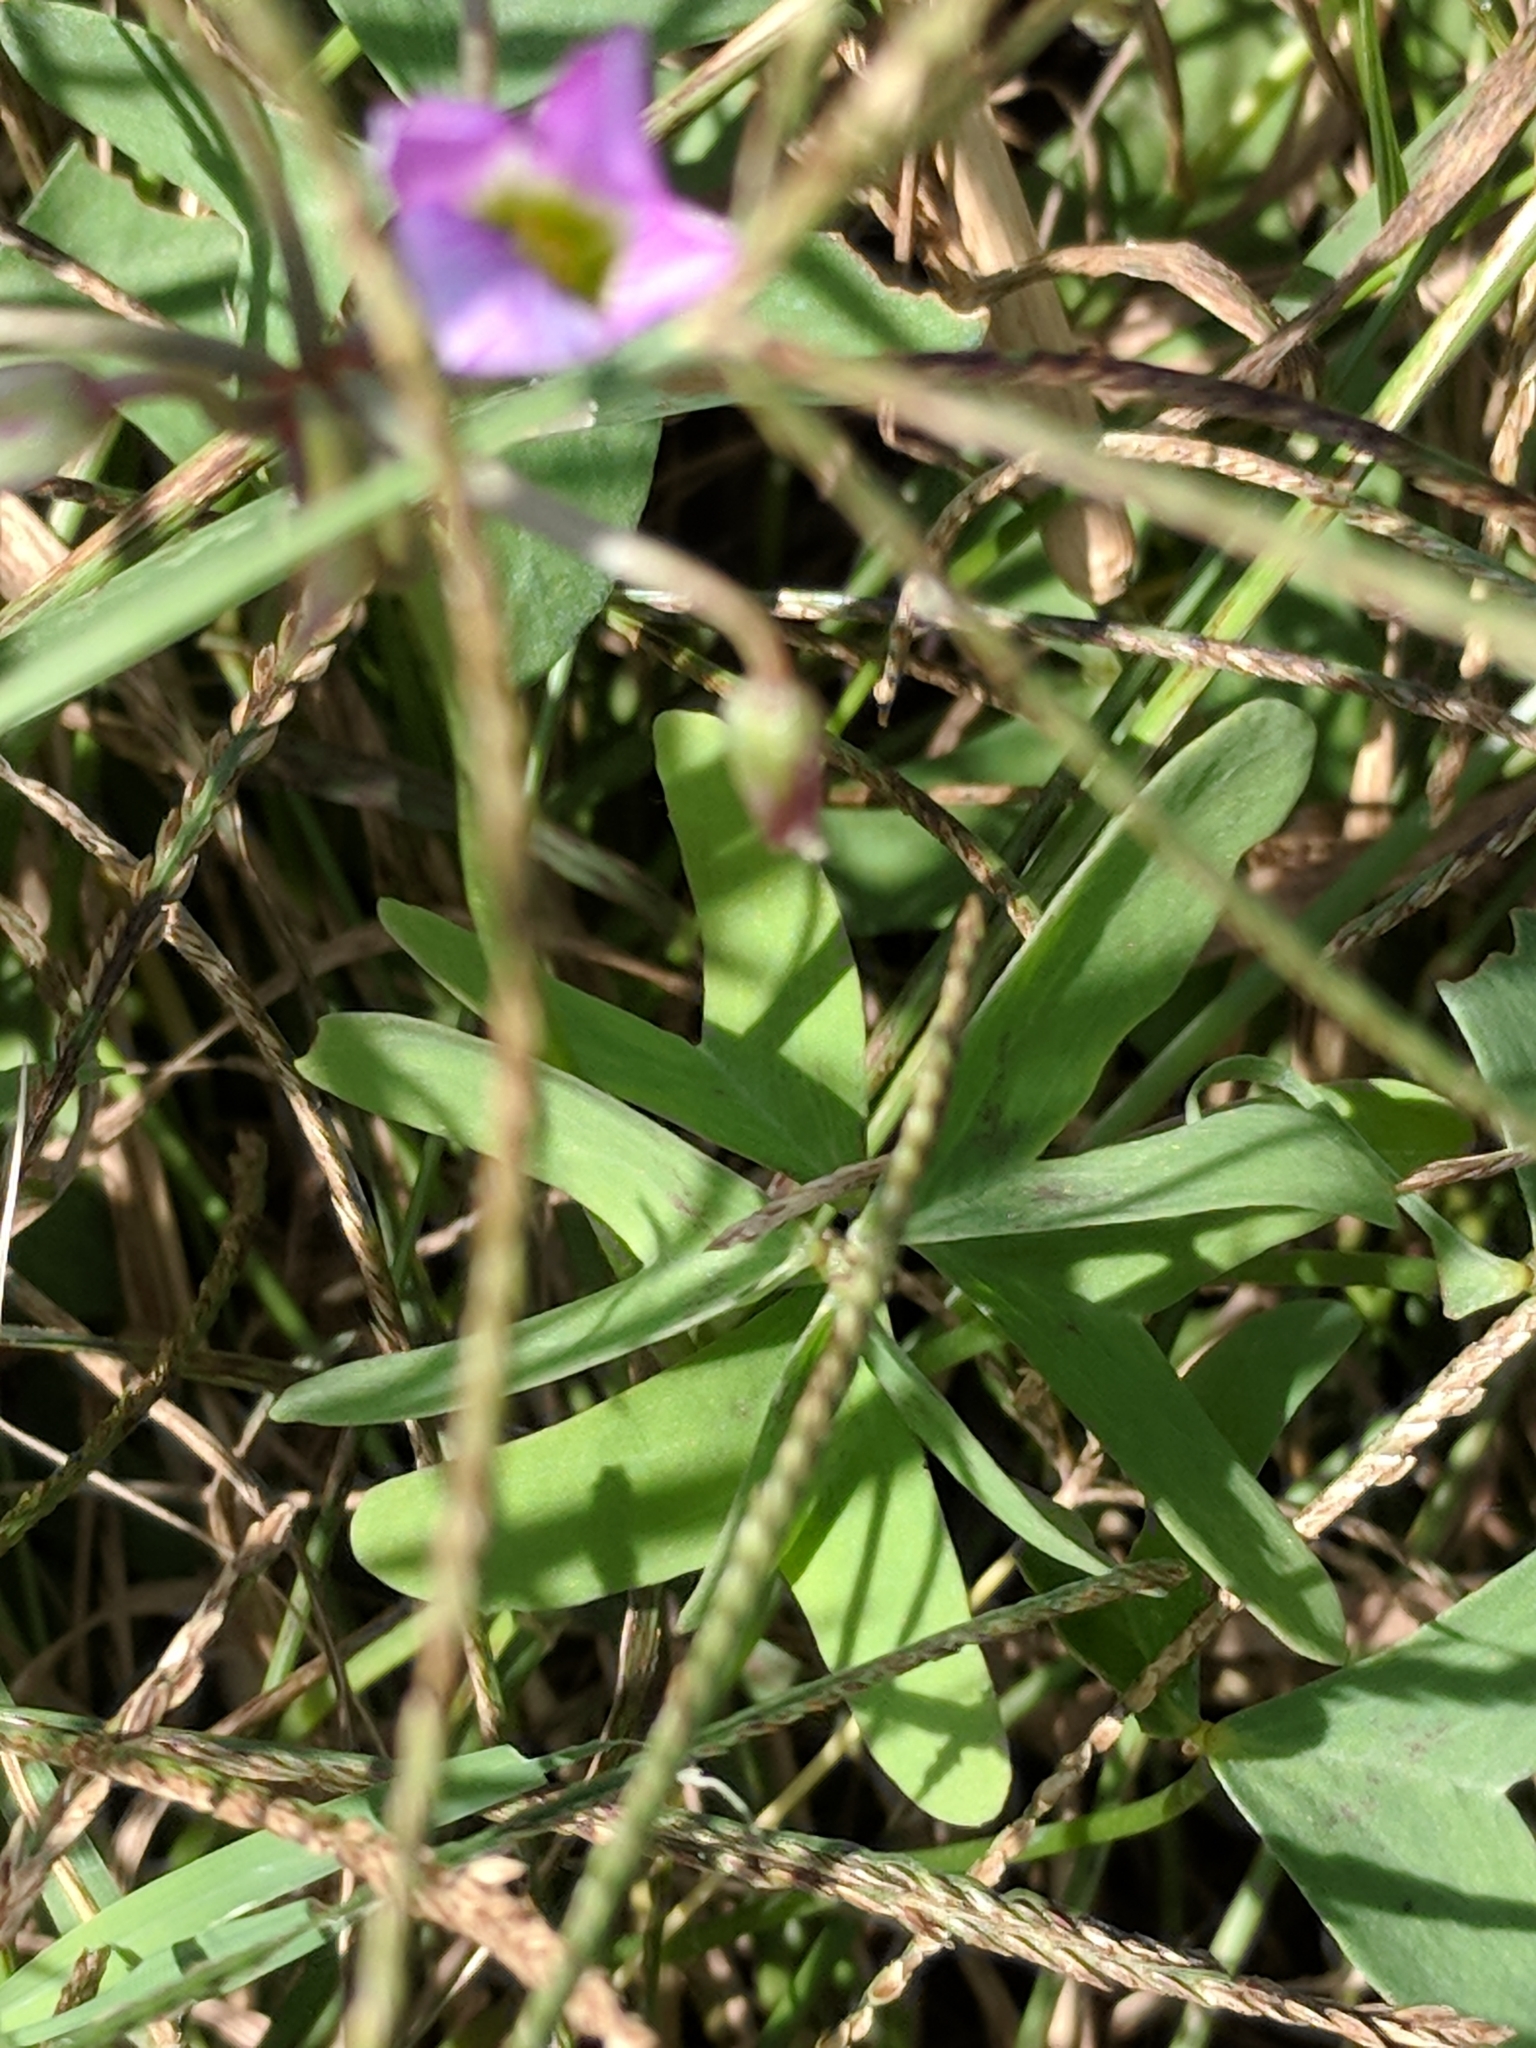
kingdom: Plantae
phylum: Tracheophyta
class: Magnoliopsida
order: Oxalidales
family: Oxalidaceae
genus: Oxalis
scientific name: Oxalis drummondii
